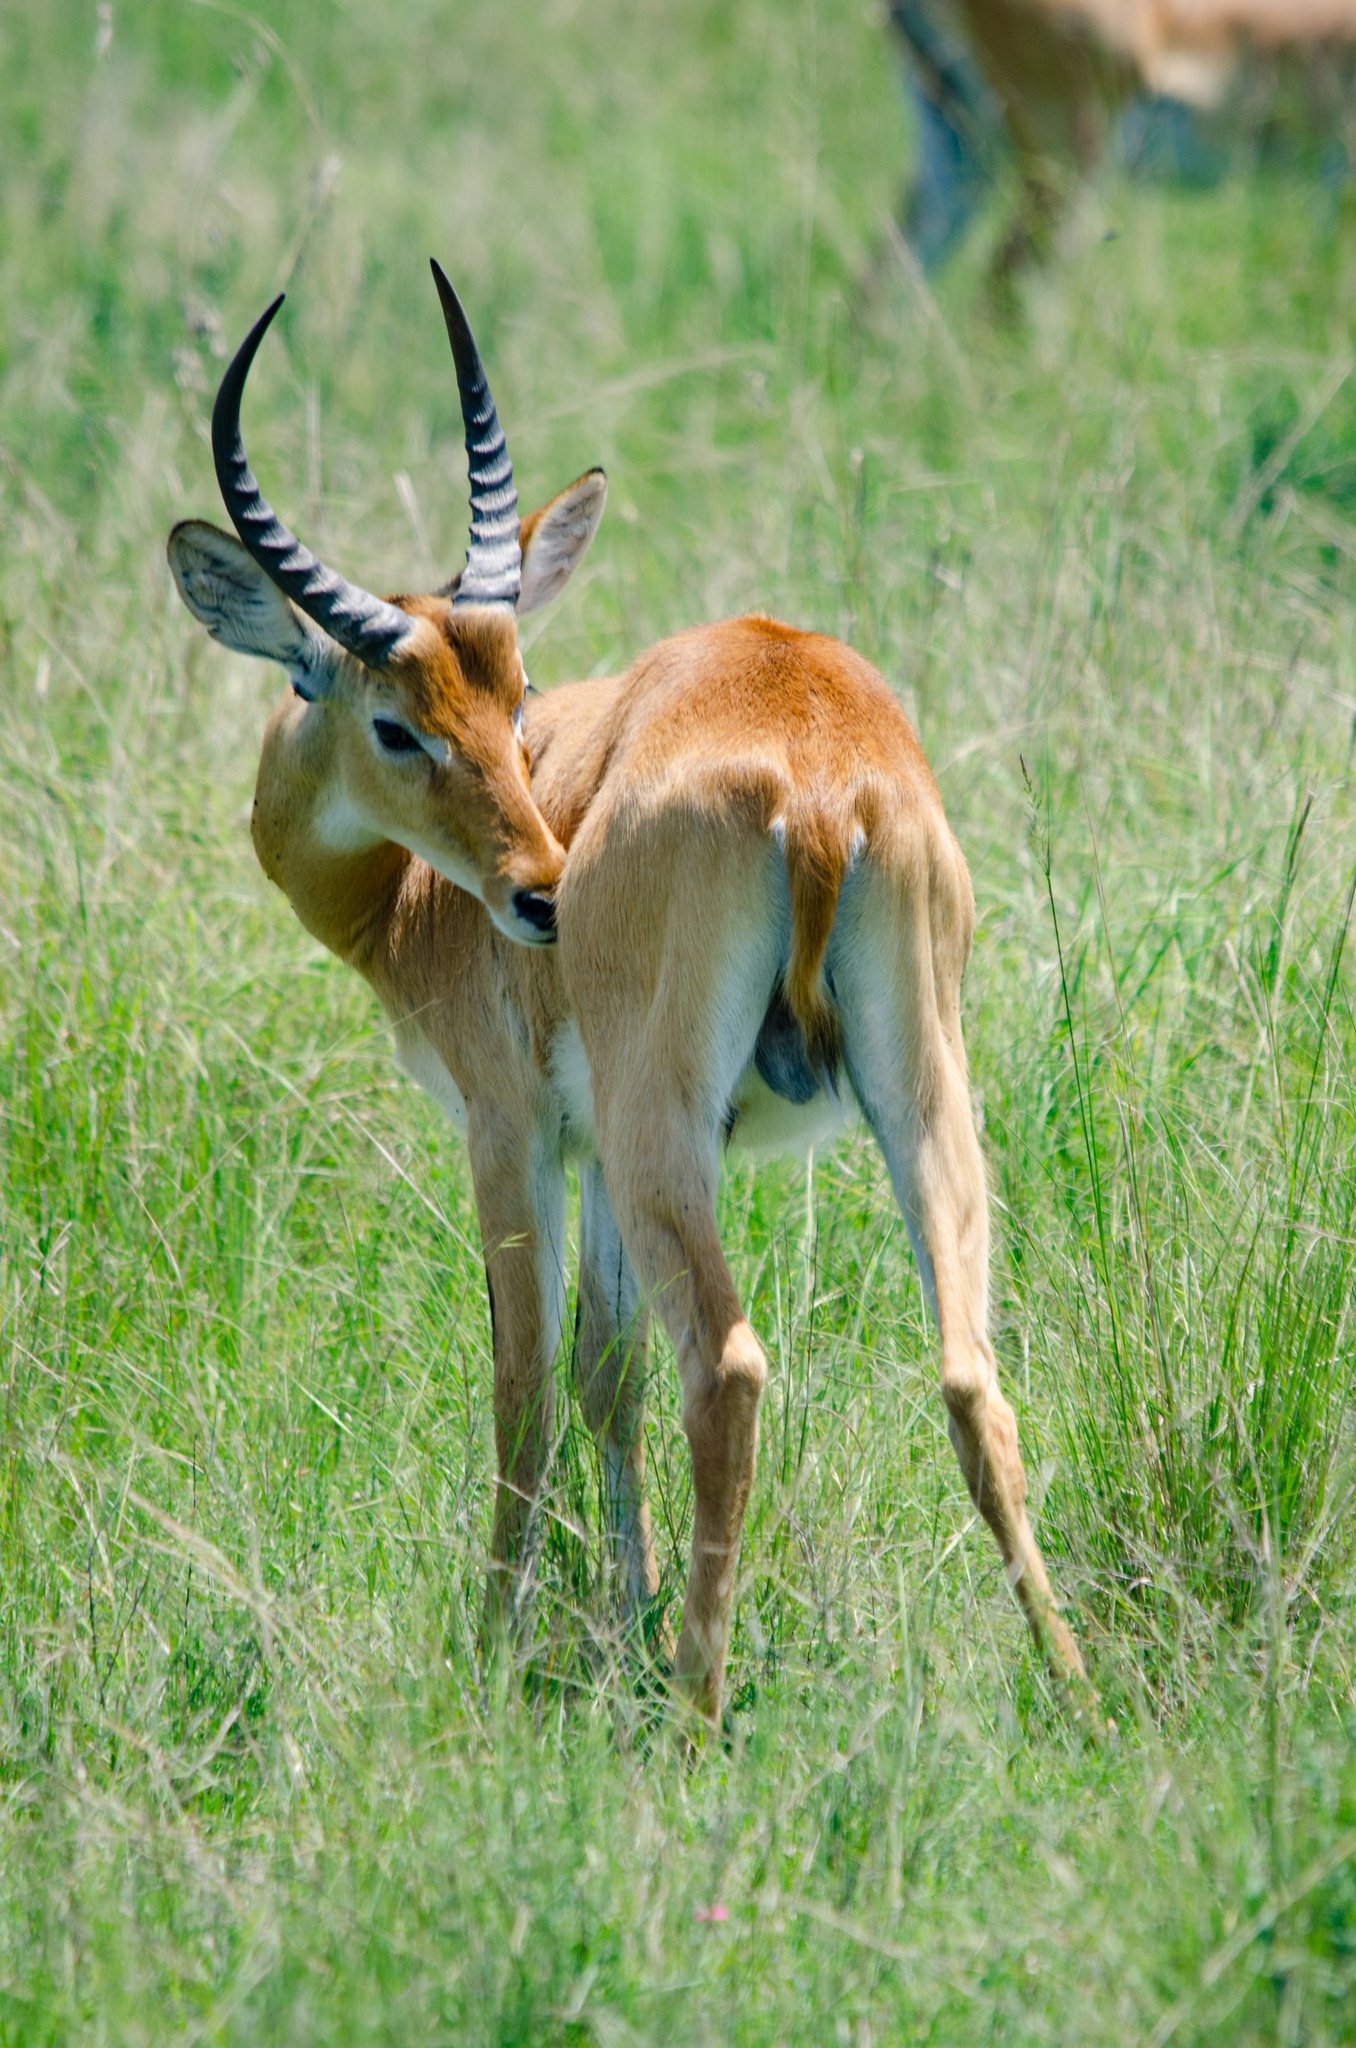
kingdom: Animalia
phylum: Chordata
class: Mammalia
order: Artiodactyla
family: Bovidae
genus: Kobus
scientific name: Kobus kob
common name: Kob
